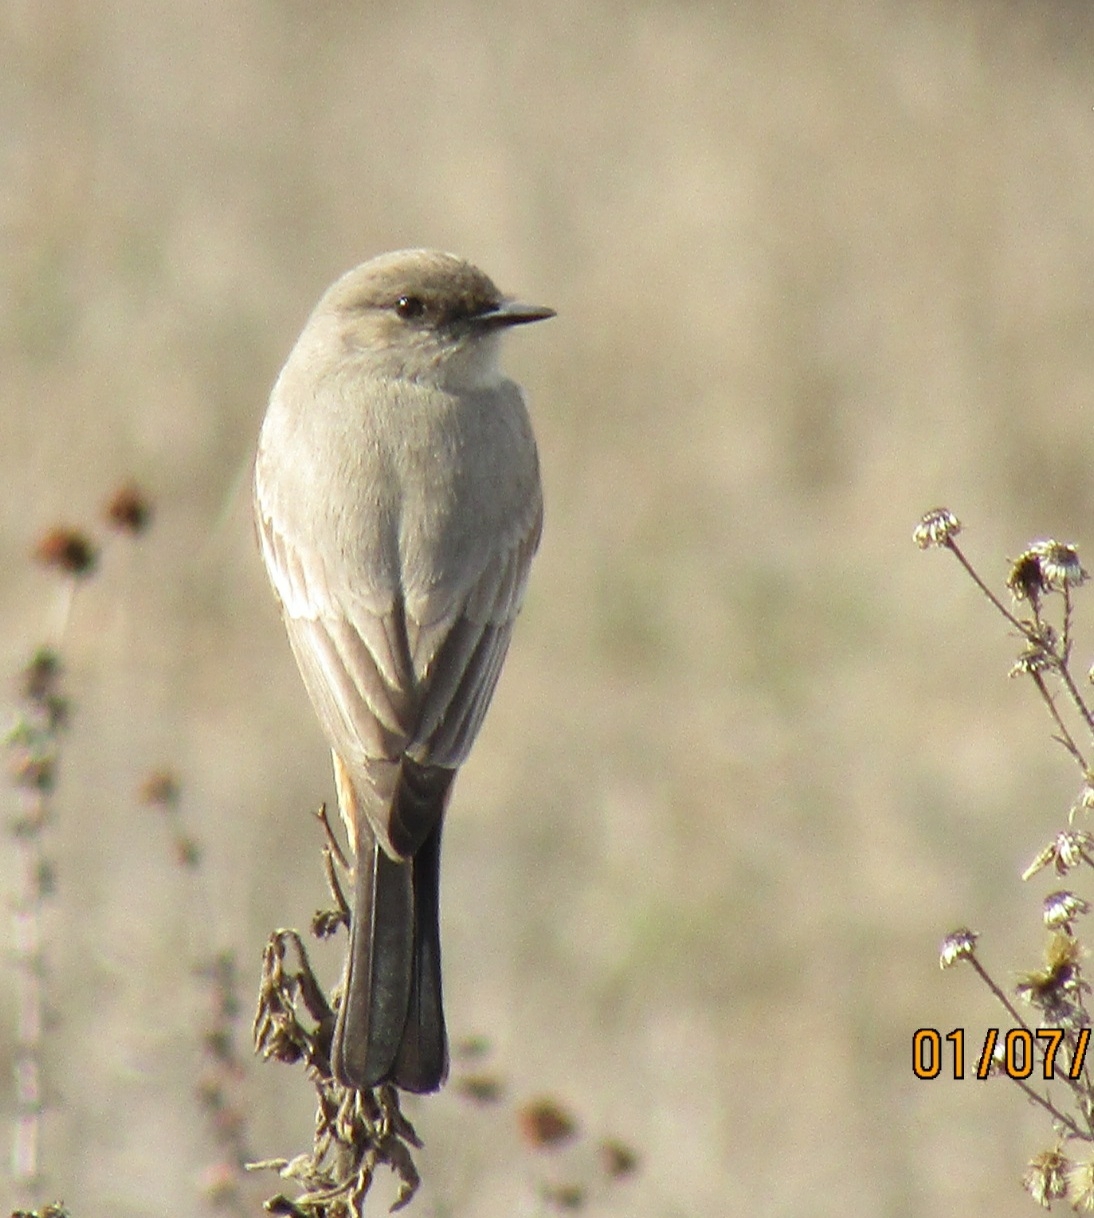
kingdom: Animalia
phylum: Chordata
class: Aves
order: Passeriformes
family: Tyrannidae
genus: Sayornis
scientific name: Sayornis saya
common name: Say's phoebe
